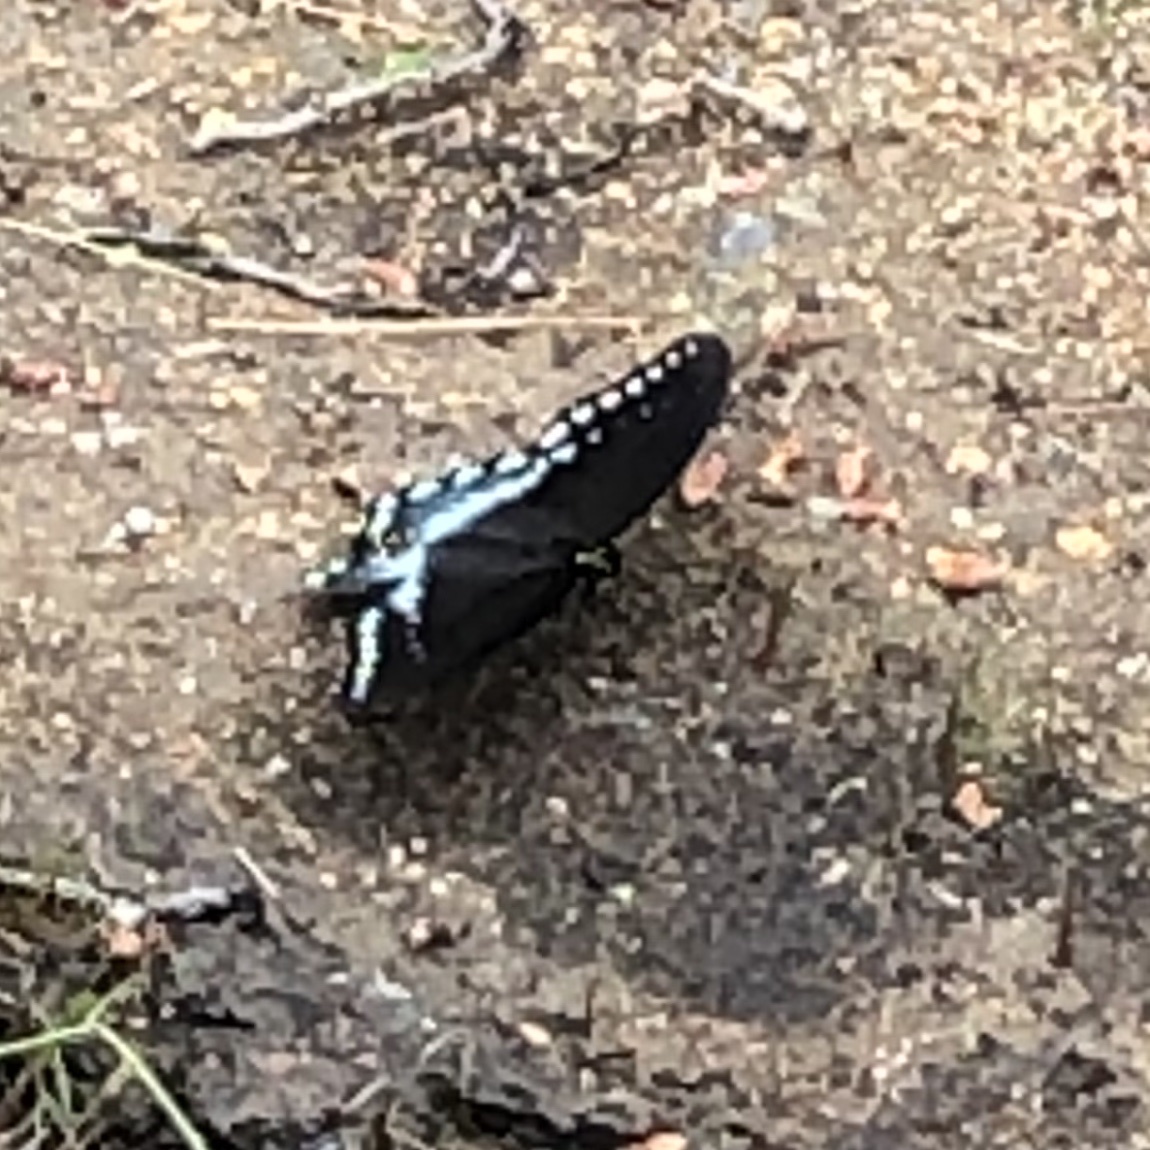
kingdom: Animalia
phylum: Arthropoda
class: Insecta
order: Lepidoptera
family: Papilionidae
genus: Papilio
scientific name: Papilio troilus
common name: Spicebush swallowtail
